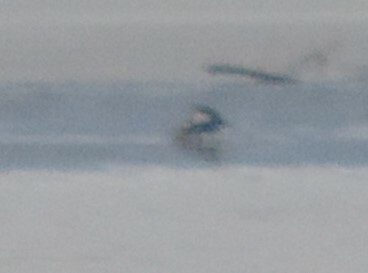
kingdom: Animalia
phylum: Chordata
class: Aves
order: Anseriformes
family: Anatidae
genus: Lophodytes
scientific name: Lophodytes cucullatus
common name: Hooded merganser
